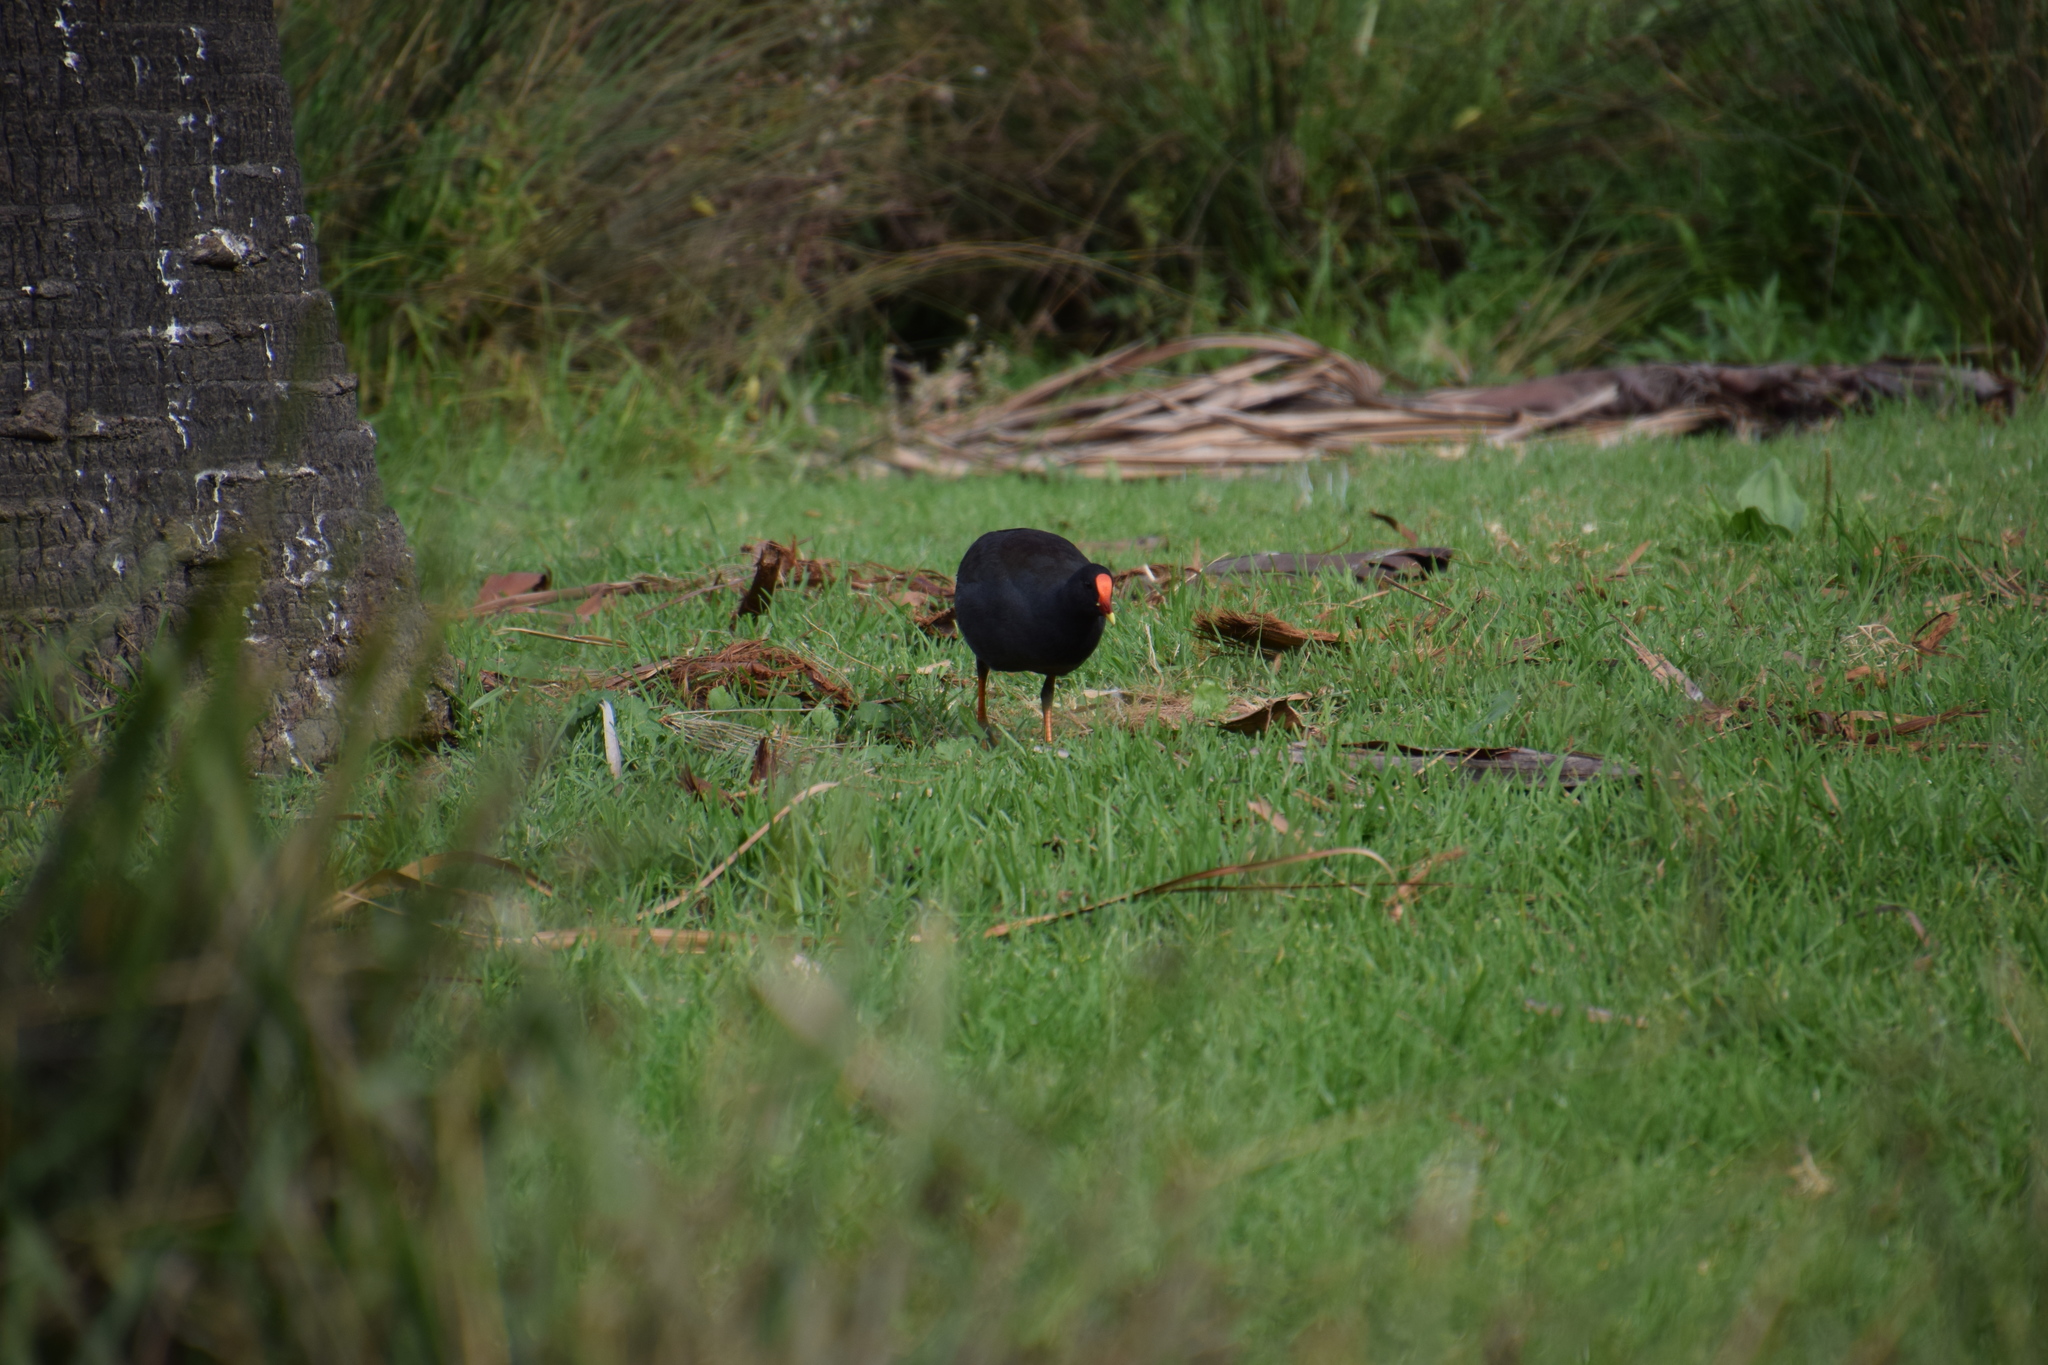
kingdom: Animalia
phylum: Chordata
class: Aves
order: Gruiformes
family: Rallidae
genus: Gallinula
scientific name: Gallinula tenebrosa
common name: Dusky moorhen
